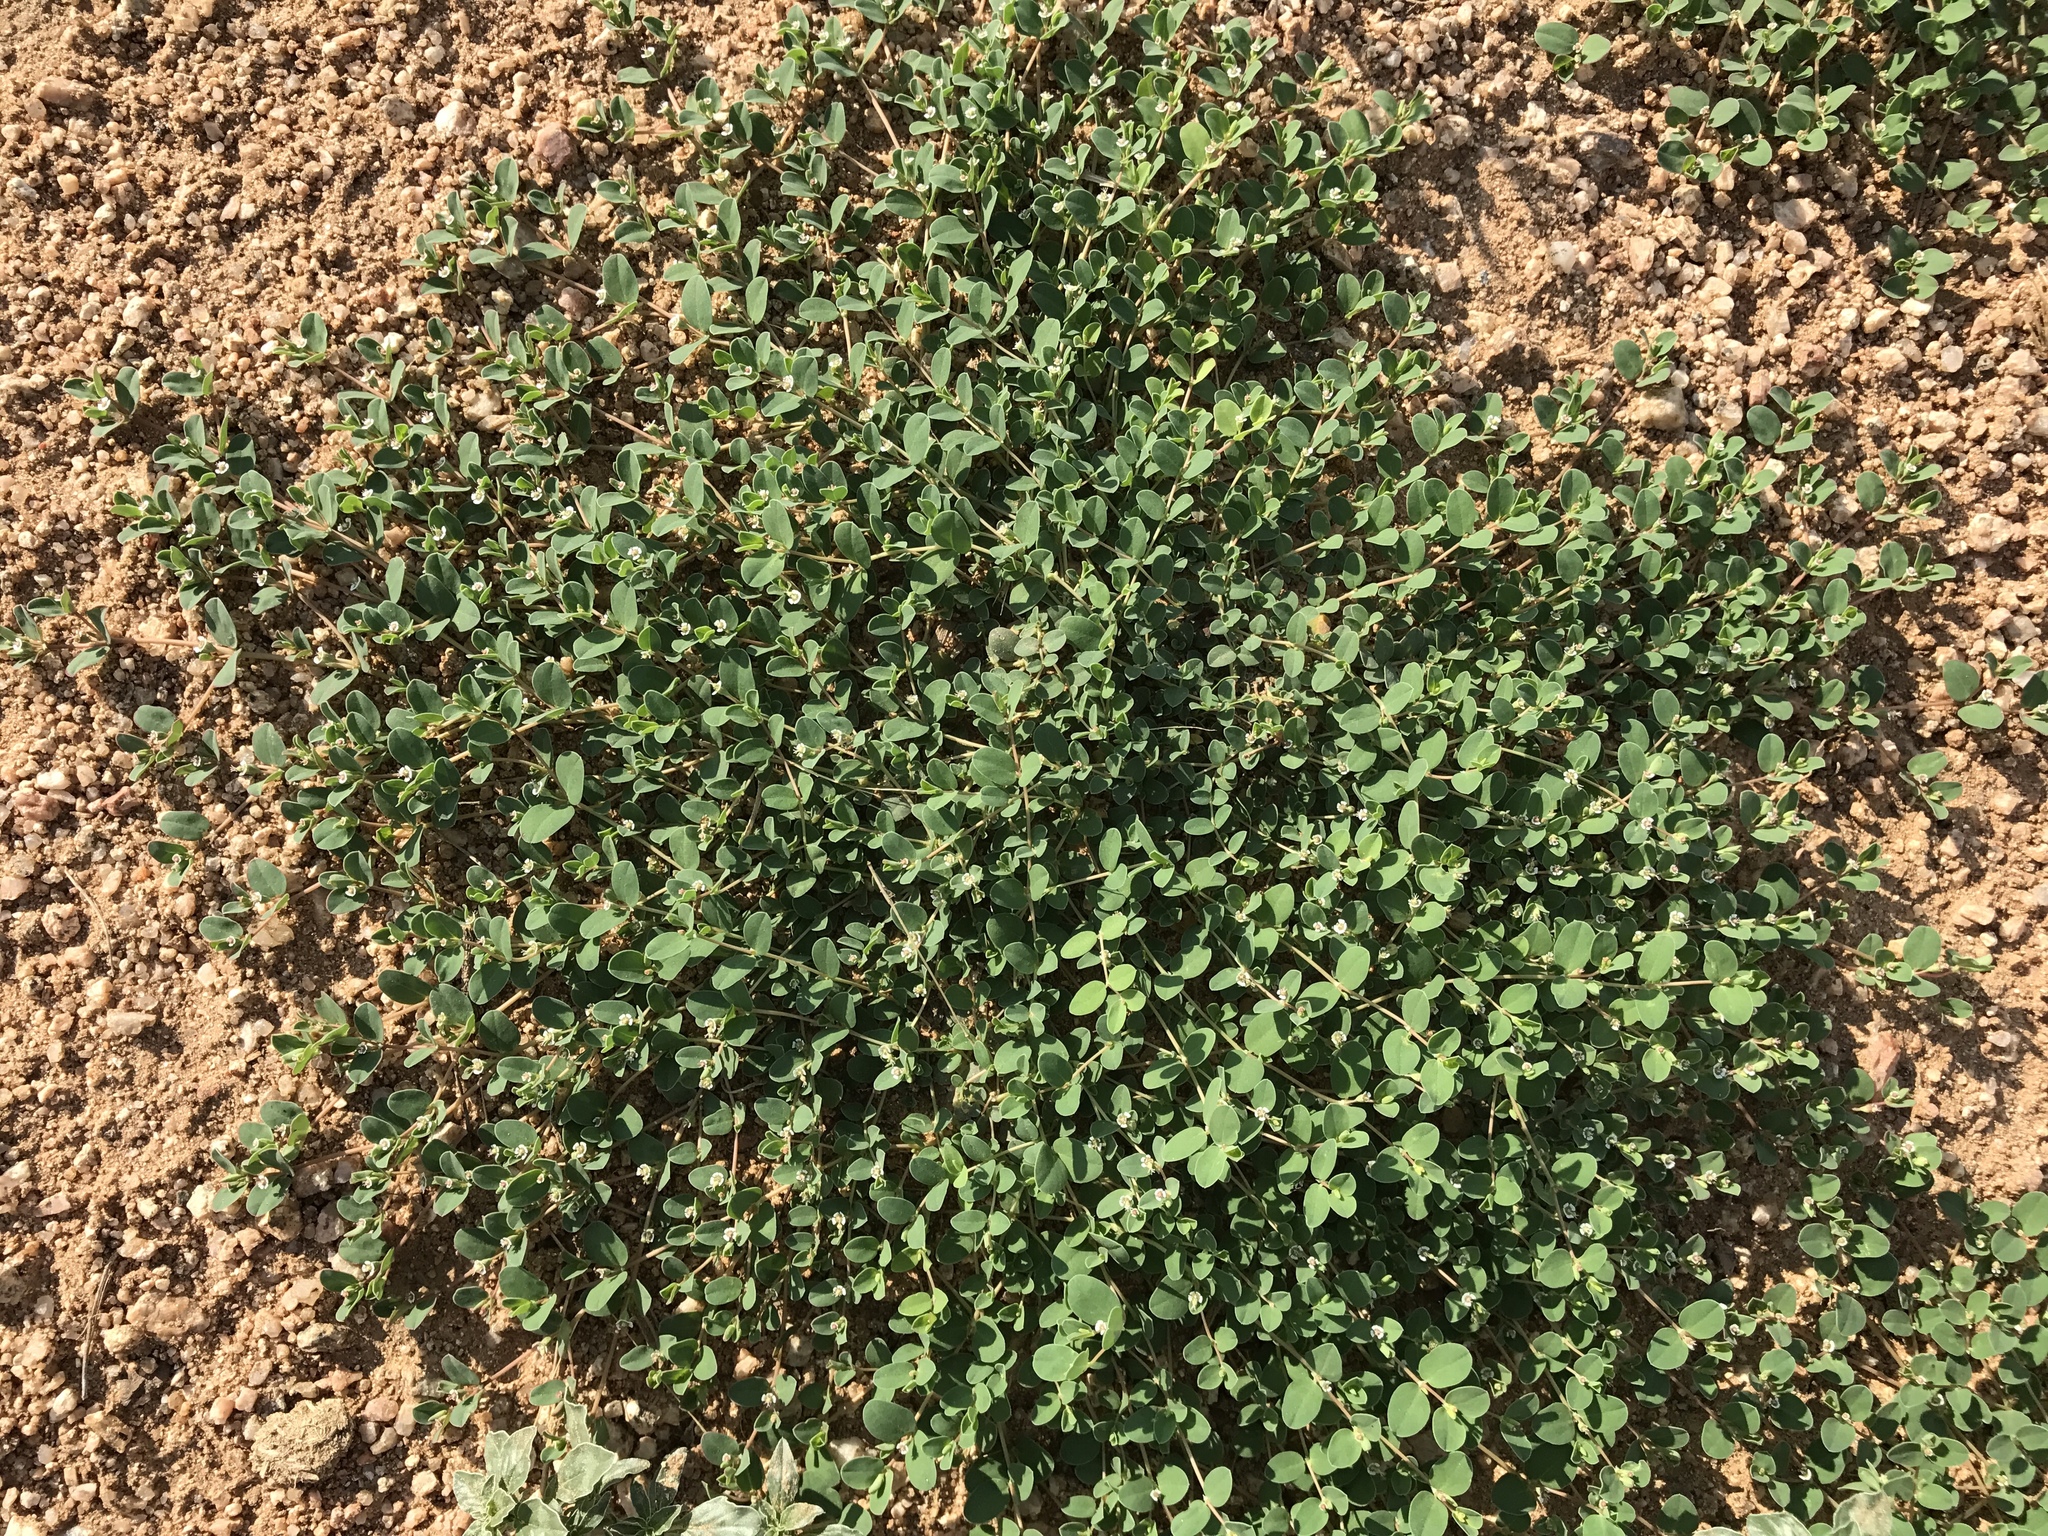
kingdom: Plantae
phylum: Tracheophyta
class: Magnoliopsida
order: Malpighiales
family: Euphorbiaceae
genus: Euphorbia
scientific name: Euphorbia albomarginata
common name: Whitemargin sandmat
